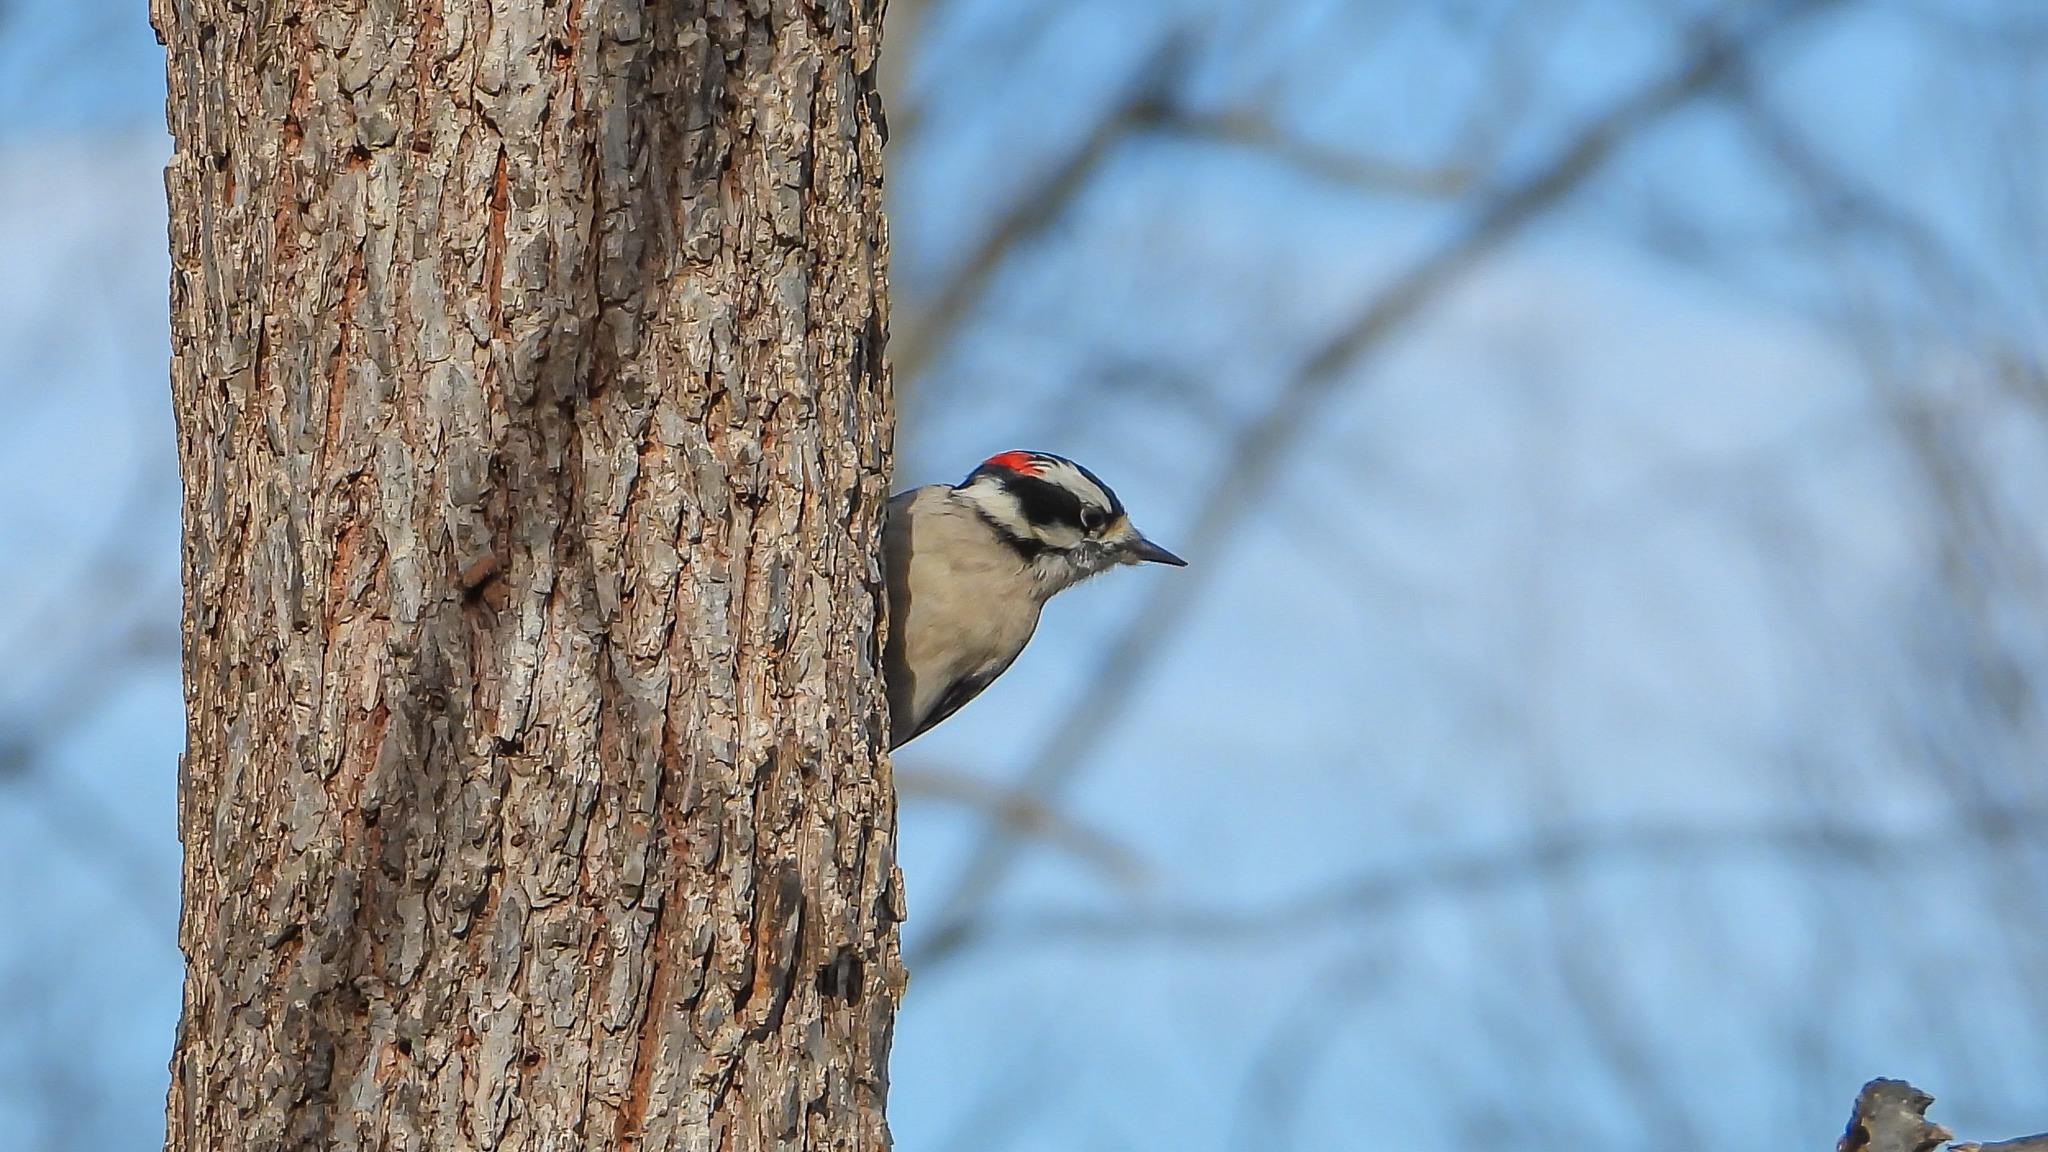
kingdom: Animalia
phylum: Chordata
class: Aves
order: Piciformes
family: Picidae
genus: Dryobates
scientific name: Dryobates pubescens
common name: Downy woodpecker
